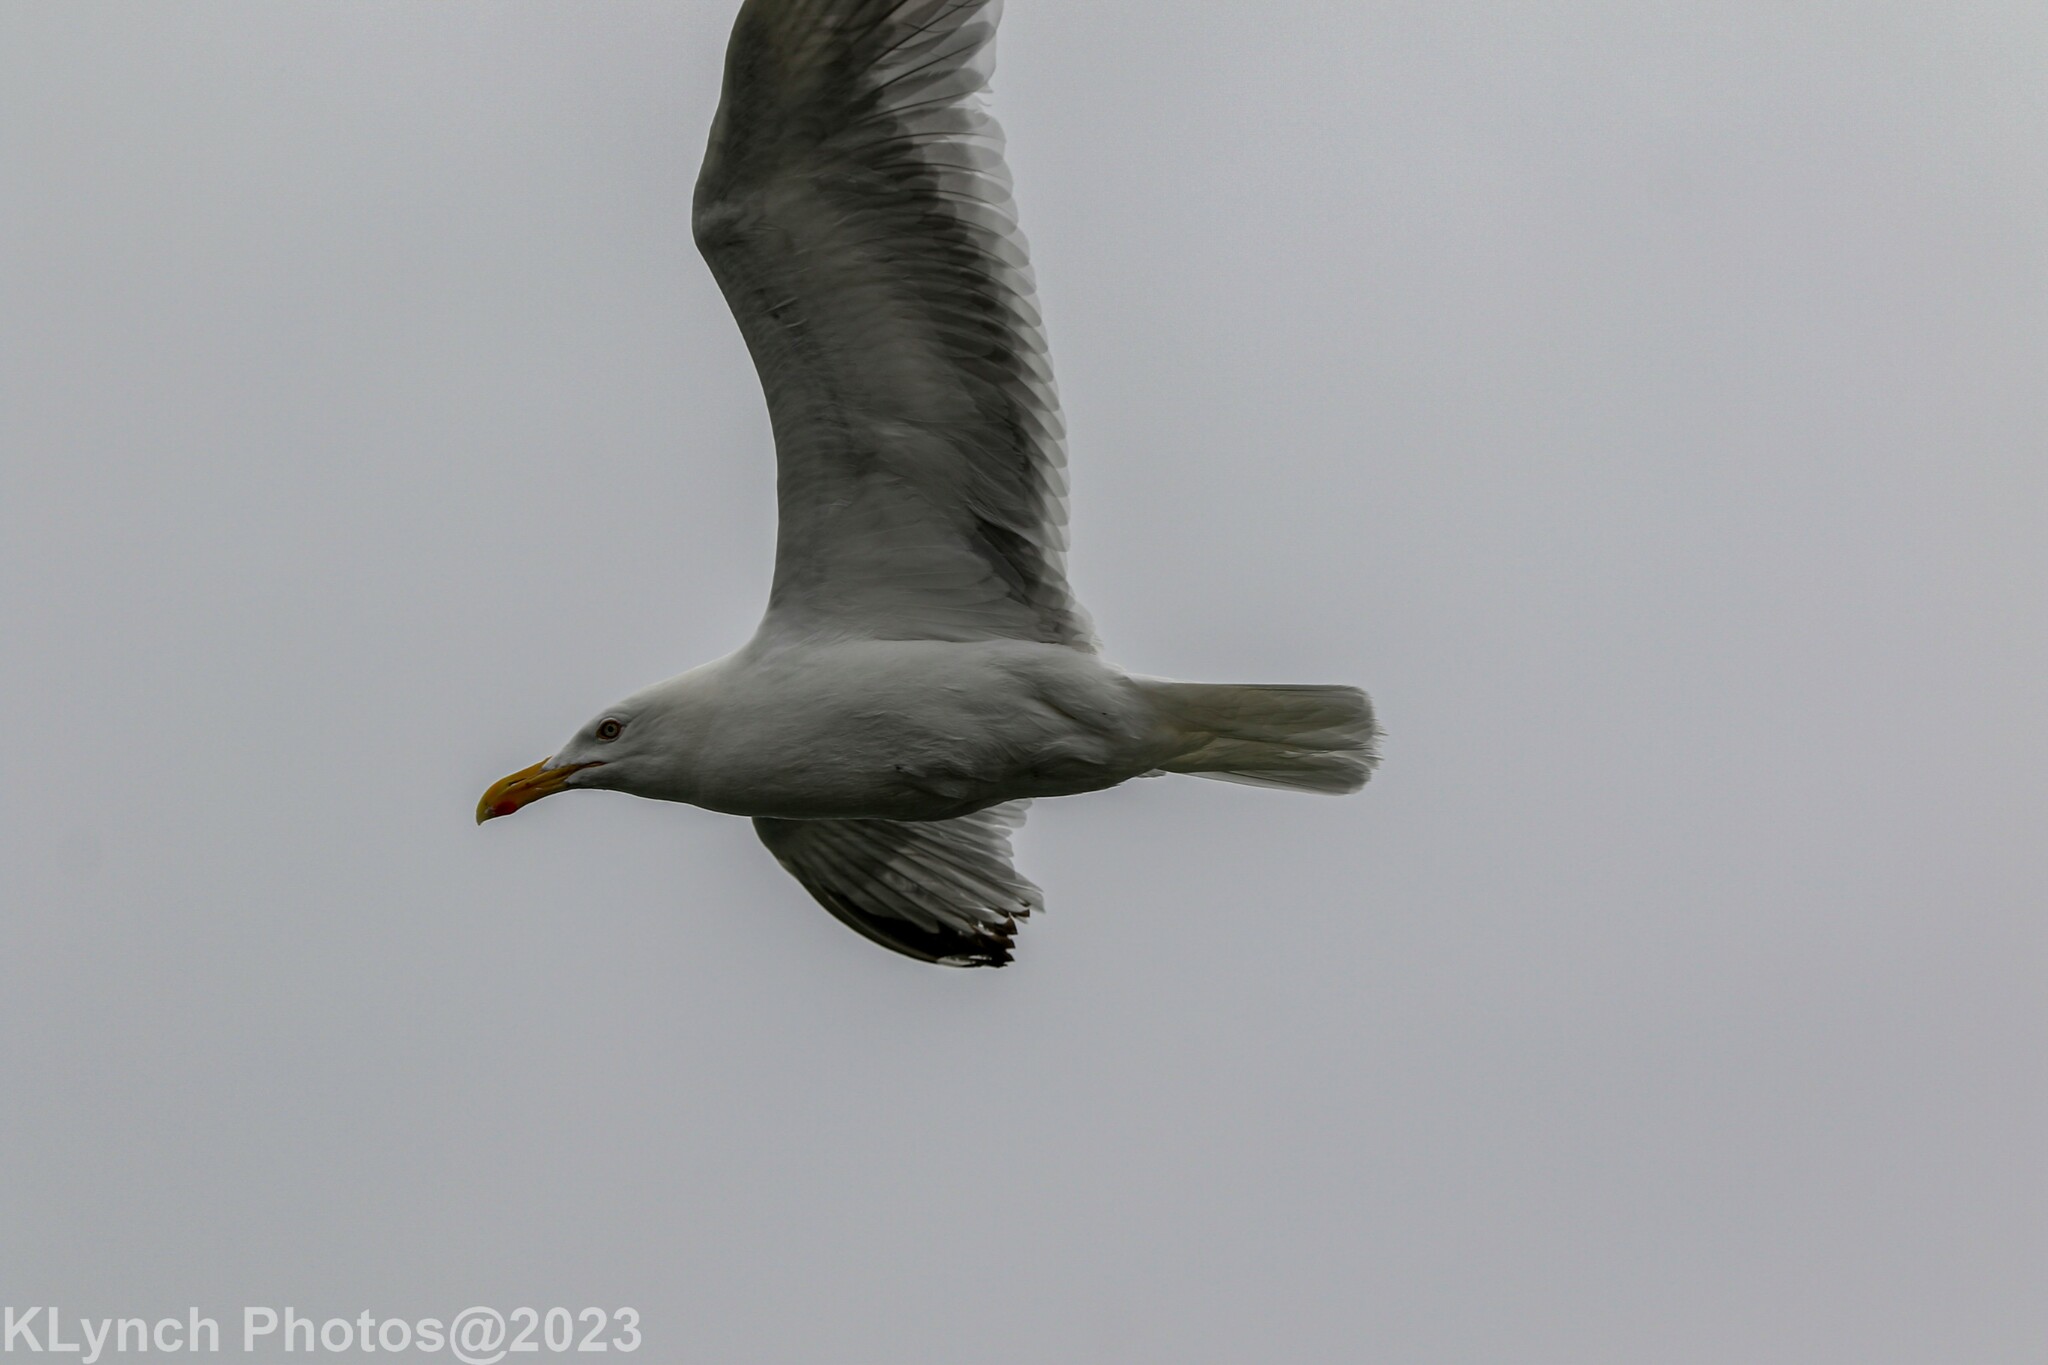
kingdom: Animalia
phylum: Chordata
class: Aves
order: Charadriiformes
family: Laridae
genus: Larus
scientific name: Larus argentatus
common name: Herring gull
